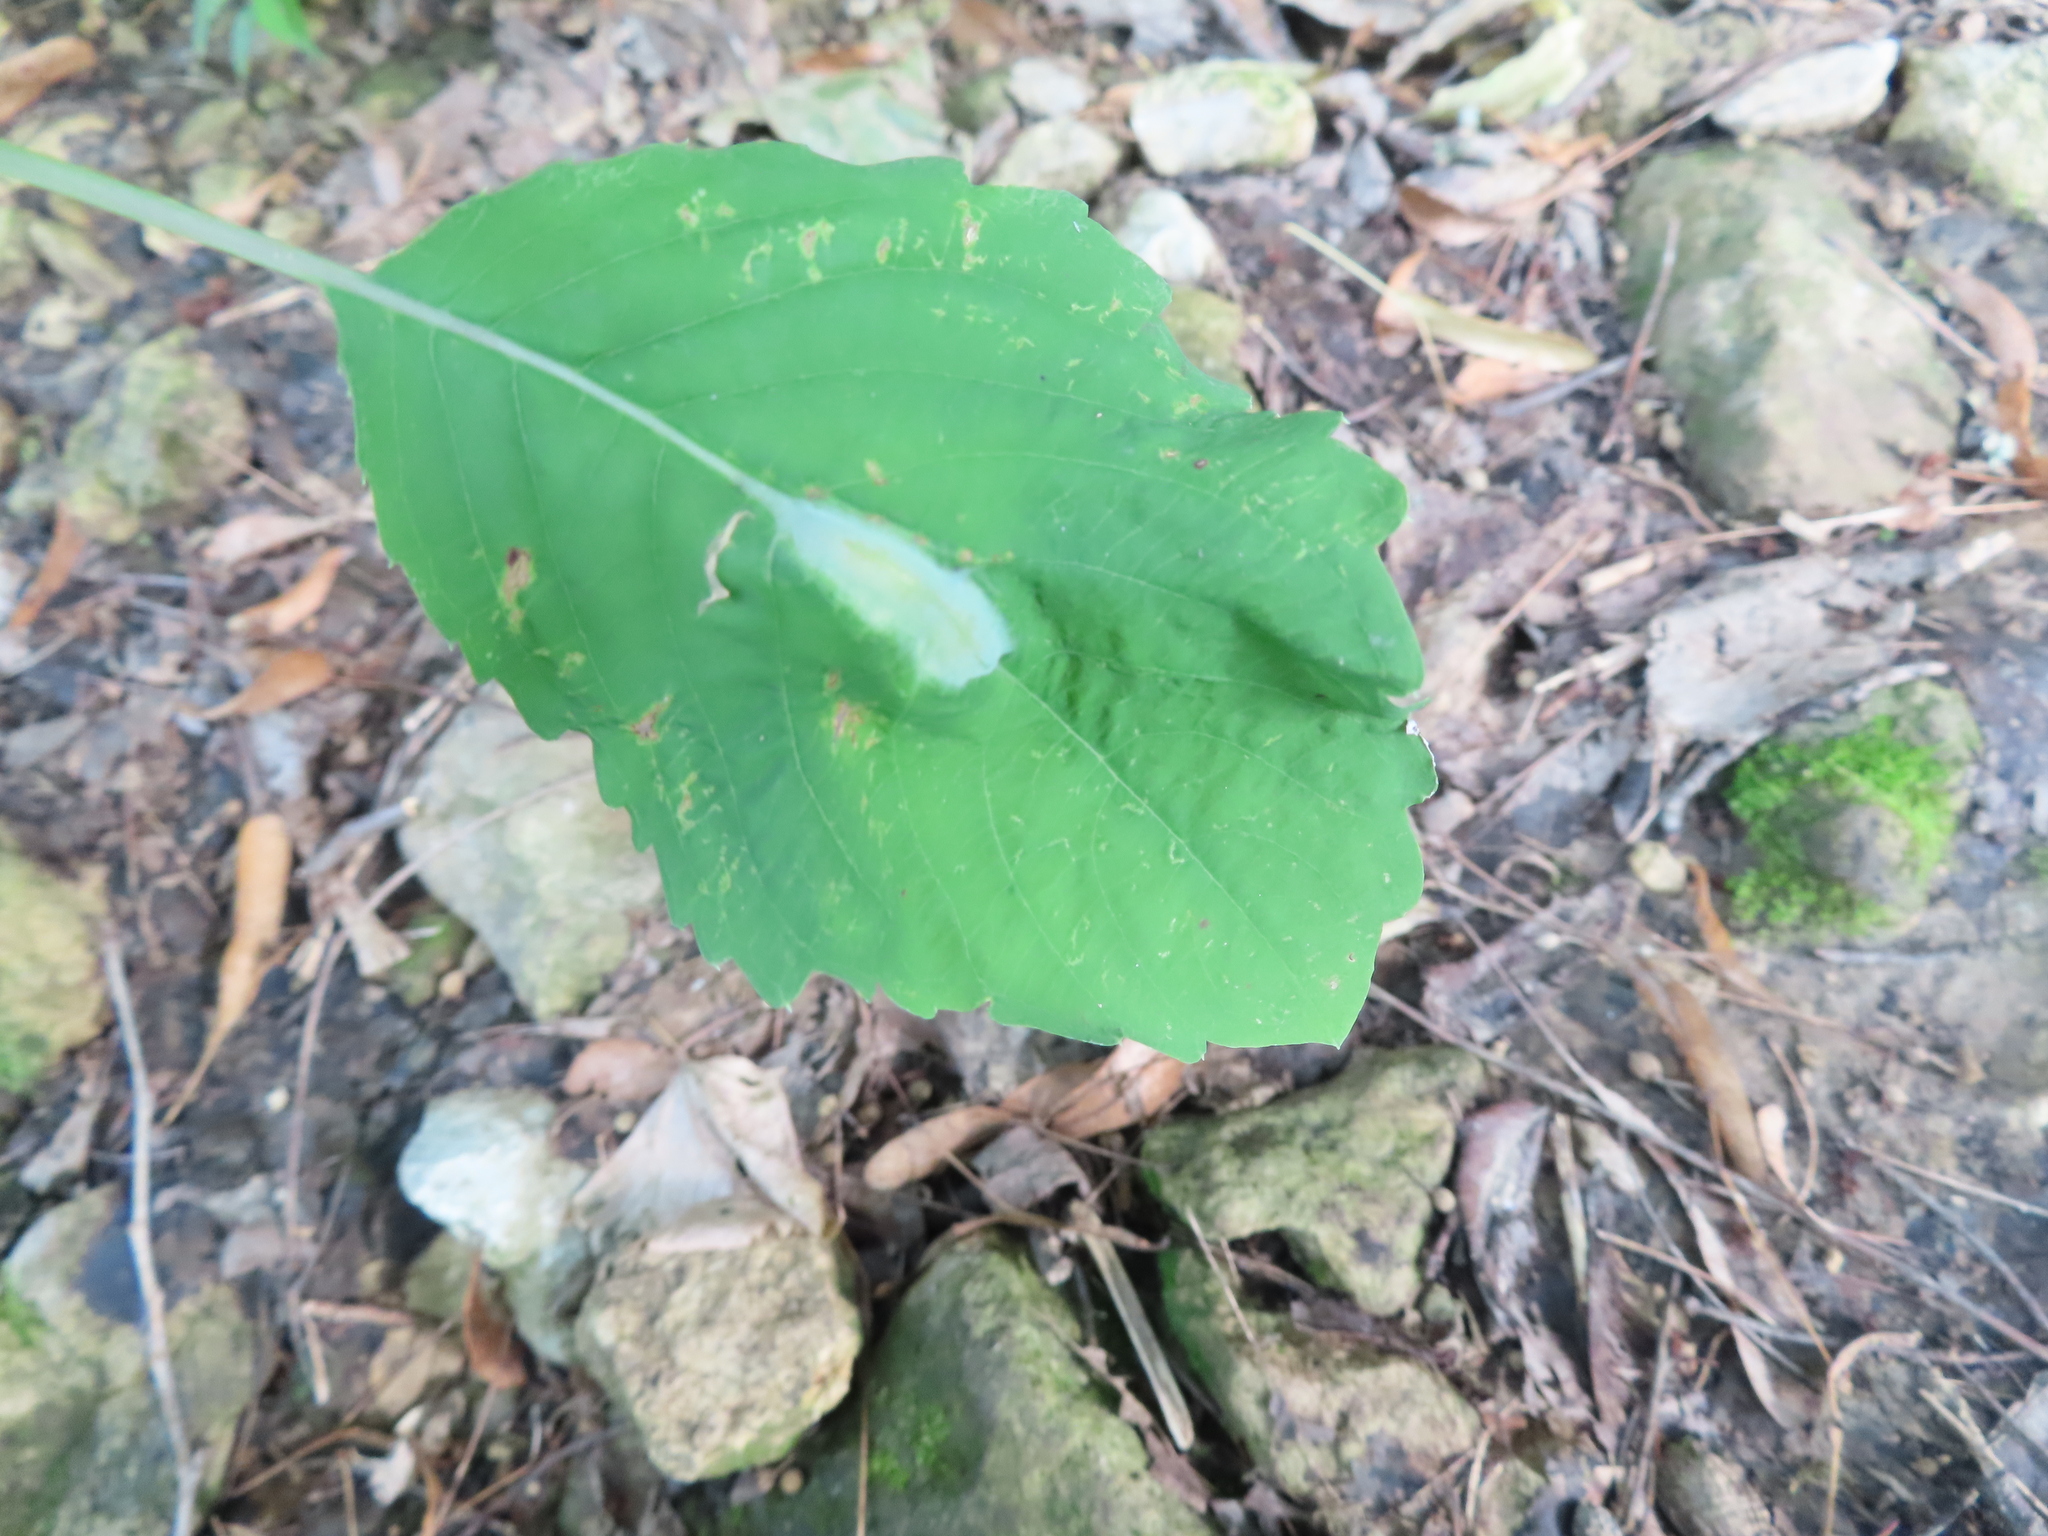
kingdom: Animalia
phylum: Arthropoda
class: Insecta
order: Diptera
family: Cecidomyiidae
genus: Neolasioptera
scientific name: Neolasioptera impatientifolia
